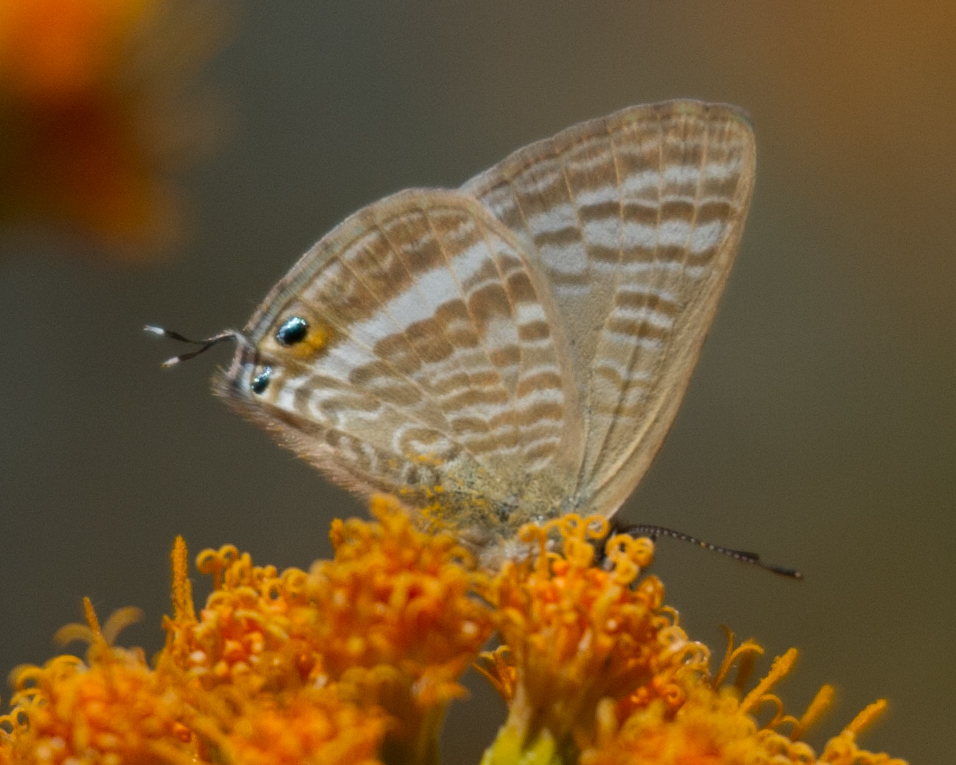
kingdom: Animalia
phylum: Arthropoda
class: Insecta
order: Lepidoptera
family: Lycaenidae
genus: Lampides
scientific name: Lampides boeticus
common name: Long-tailed blue
